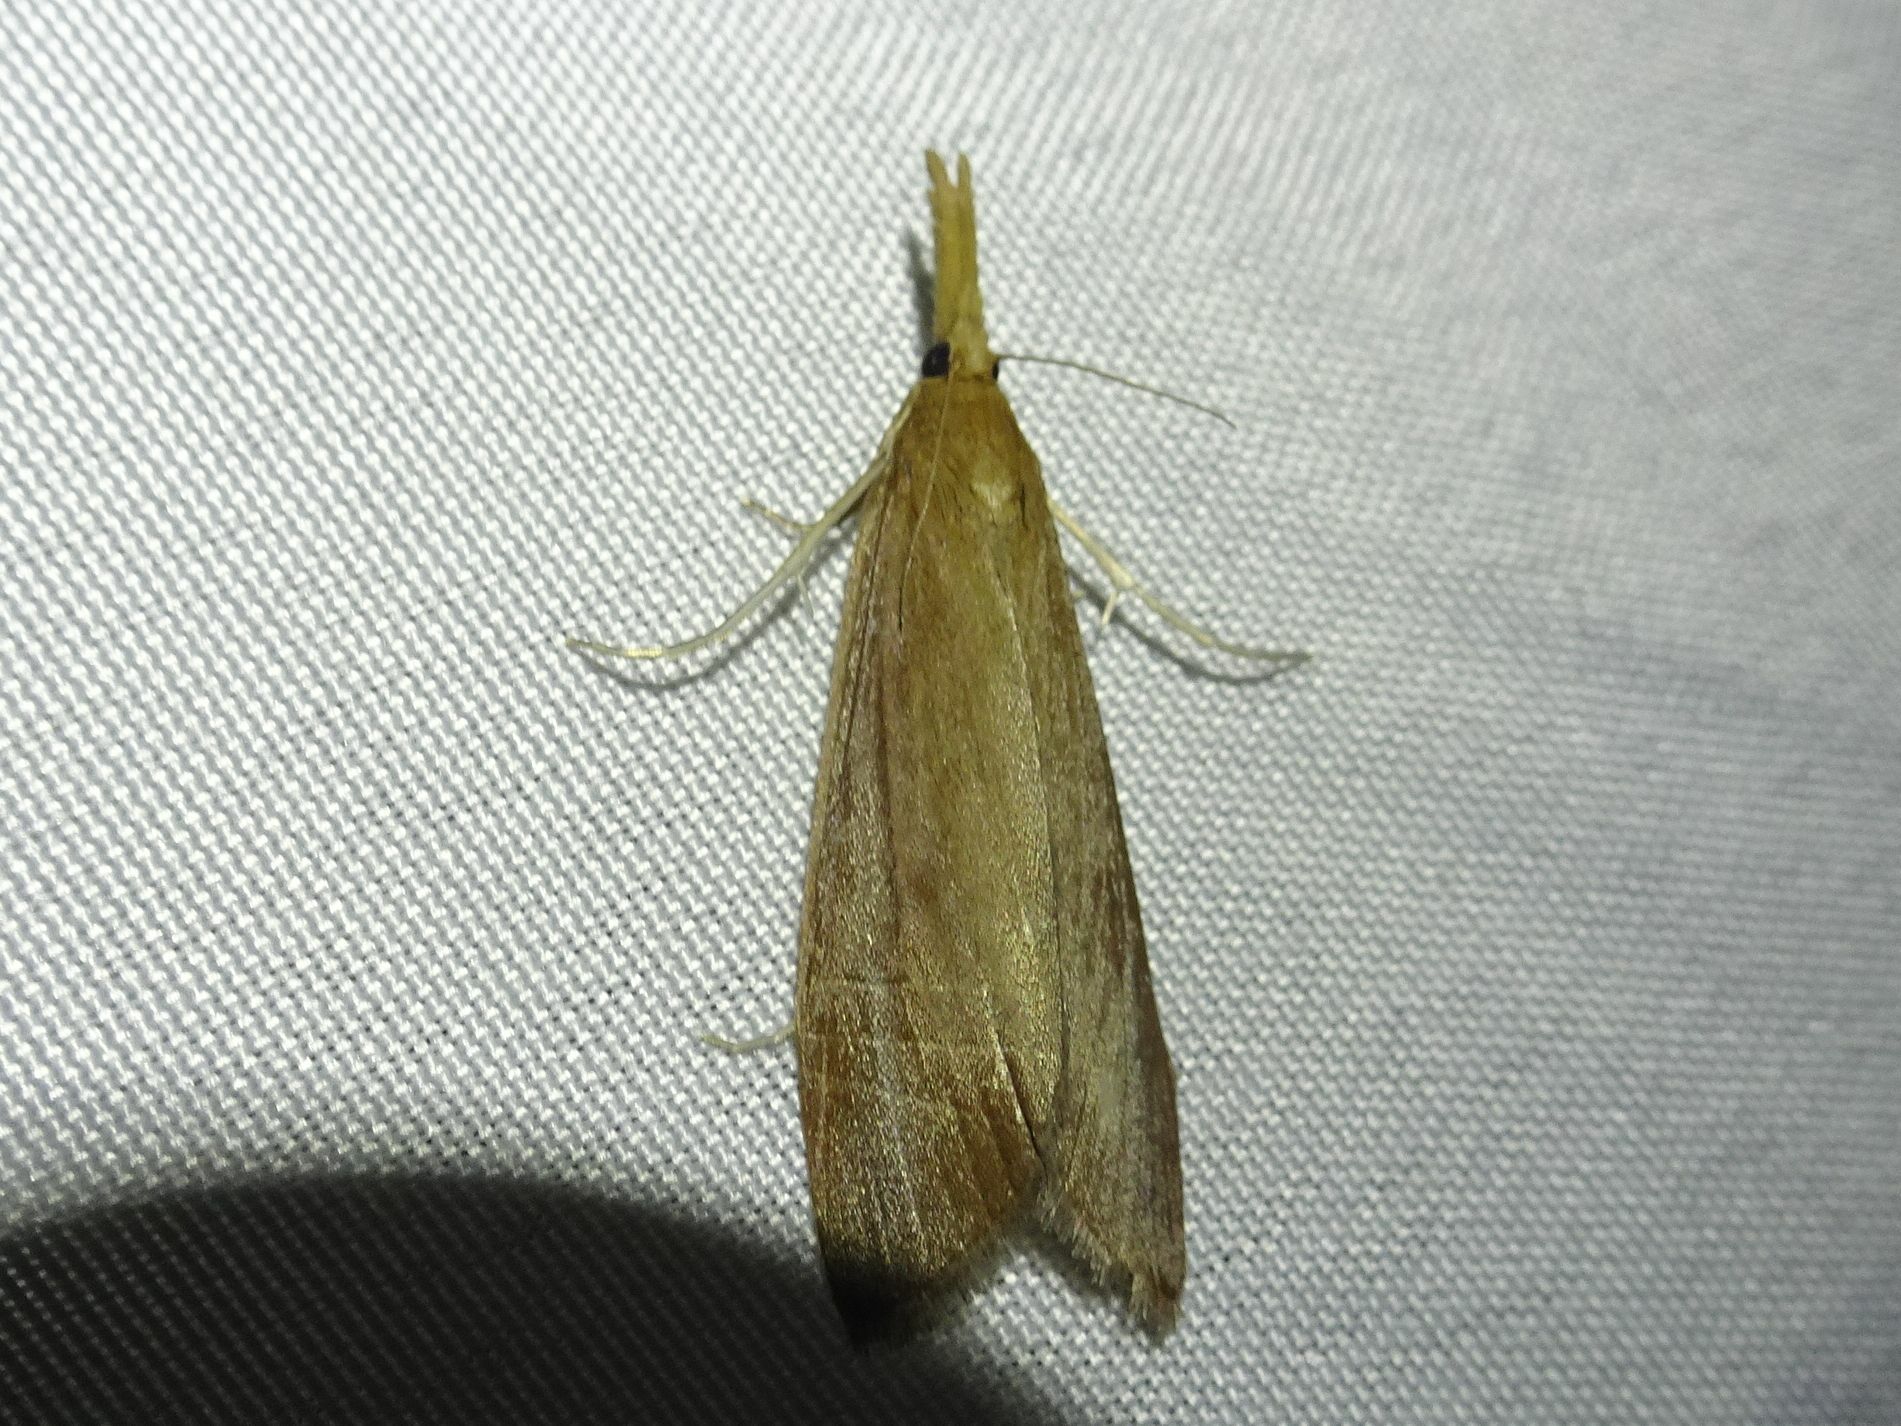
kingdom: Animalia
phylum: Arthropoda
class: Insecta
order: Lepidoptera
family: Crambidae
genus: Chilo
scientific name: Chilo phragmitella
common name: Reed veneer
